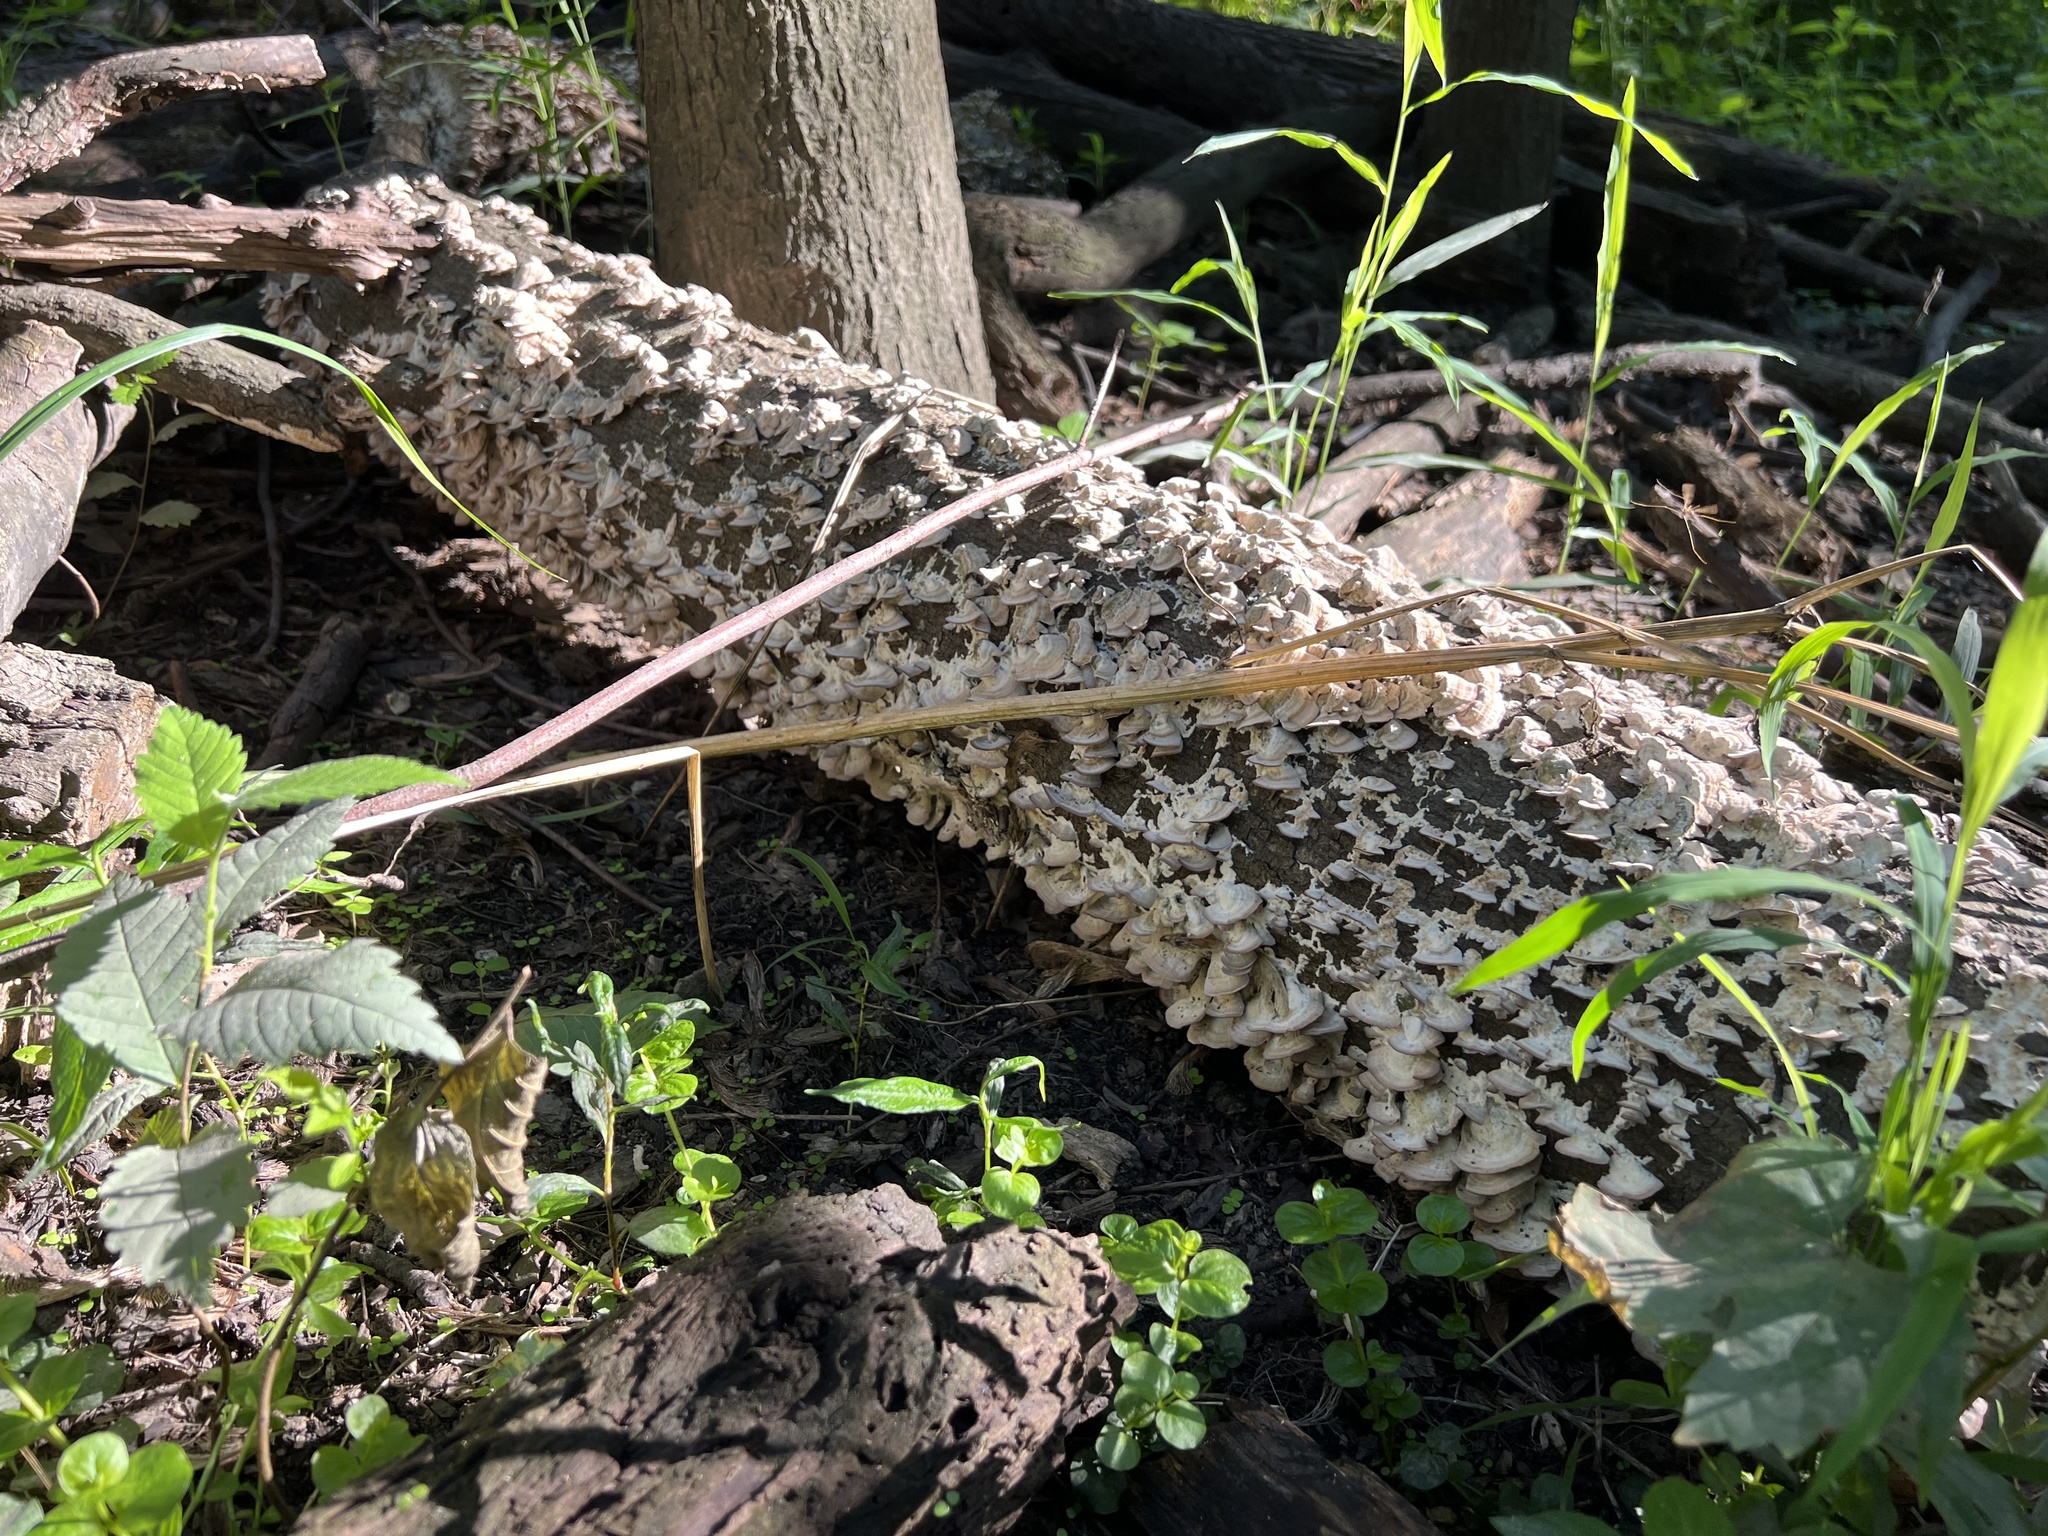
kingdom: Fungi
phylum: Basidiomycota
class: Agaricomycetes
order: Hymenochaetales
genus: Trichaptum
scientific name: Trichaptum biforme
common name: Violet-toothed polypore
